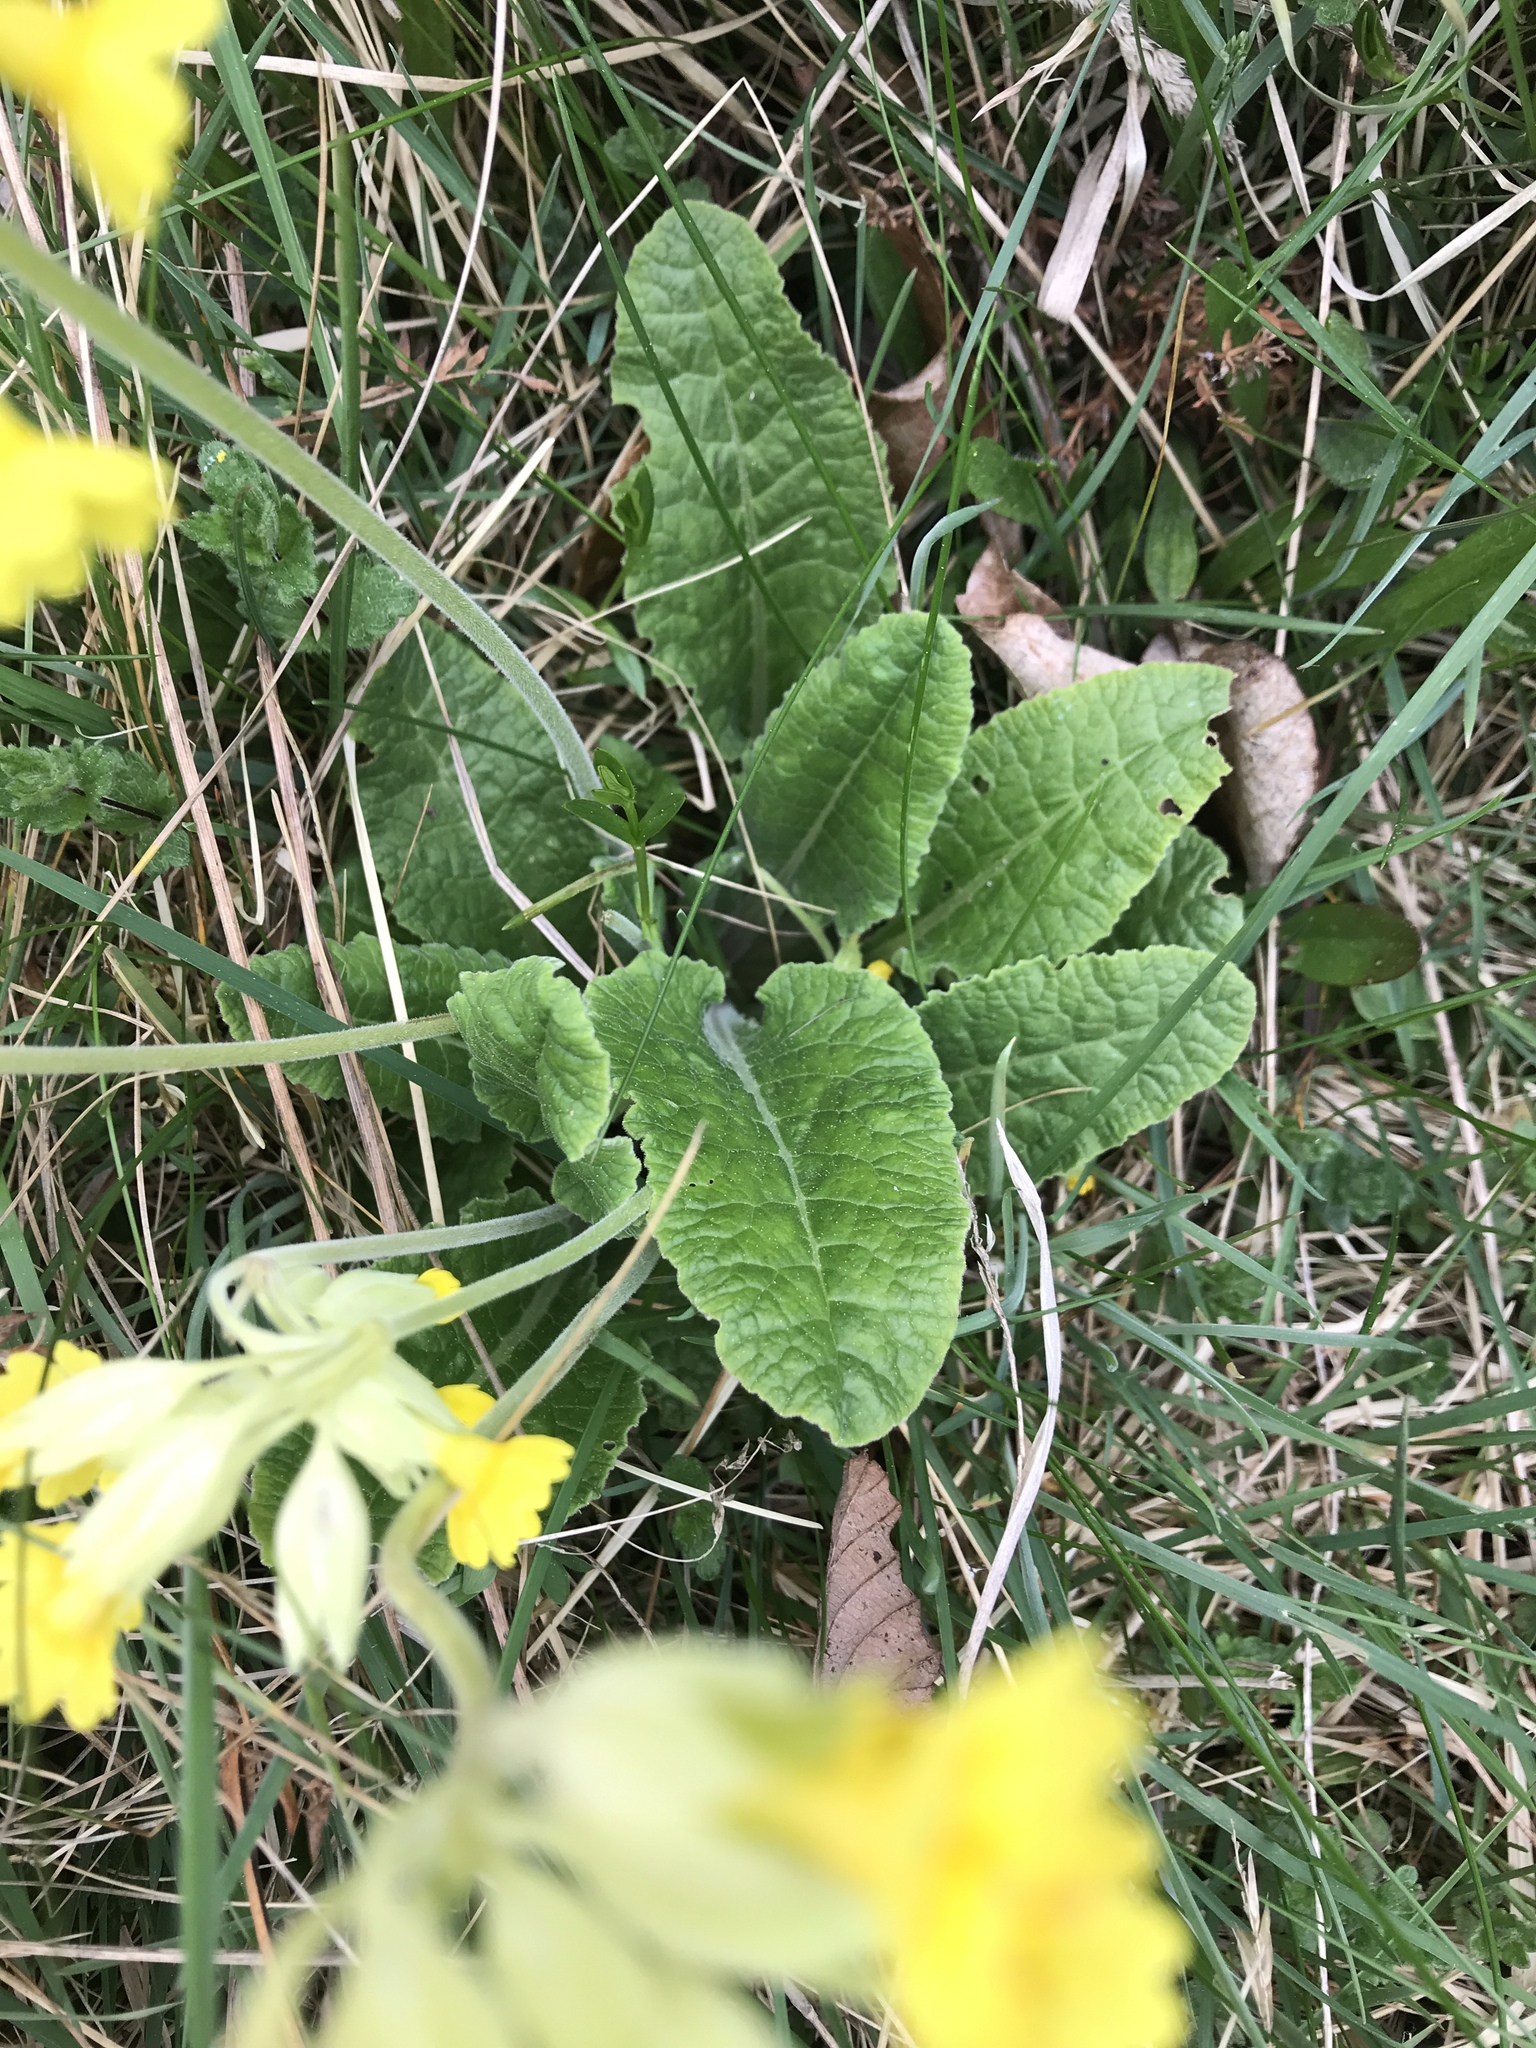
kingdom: Plantae
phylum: Tracheophyta
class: Magnoliopsida
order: Ericales
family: Primulaceae
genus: Primula
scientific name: Primula veris
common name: Cowslip
